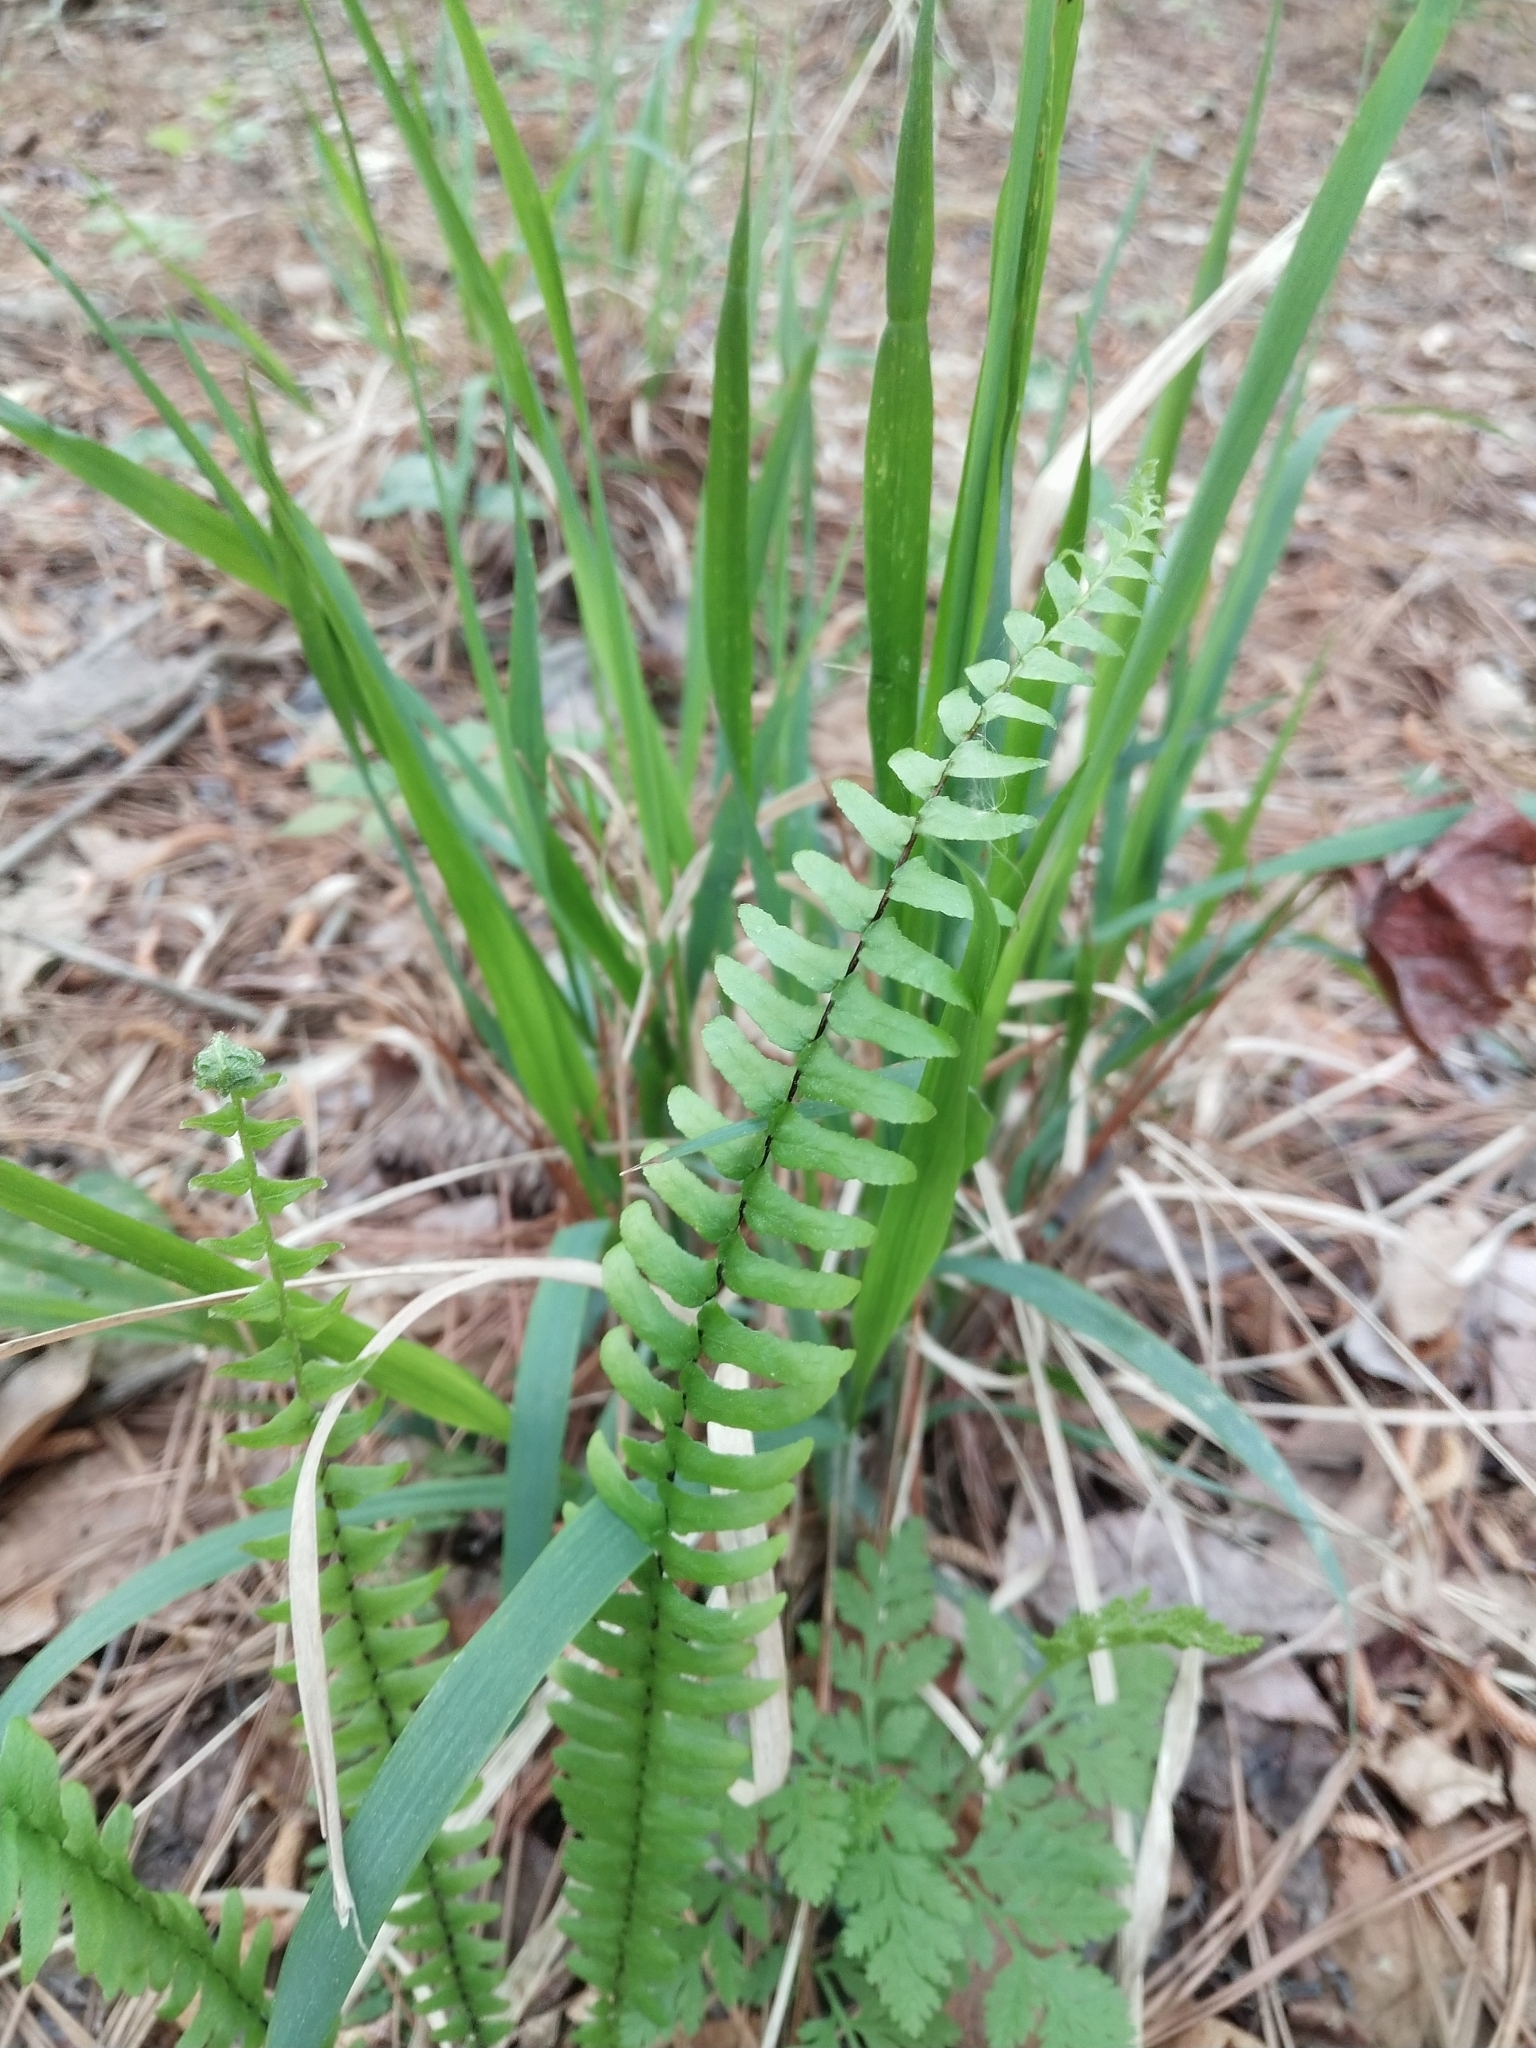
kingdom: Plantae
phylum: Tracheophyta
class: Polypodiopsida
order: Polypodiales
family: Aspleniaceae
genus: Asplenium
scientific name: Asplenium platyneuron
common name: Ebony spleenwort
